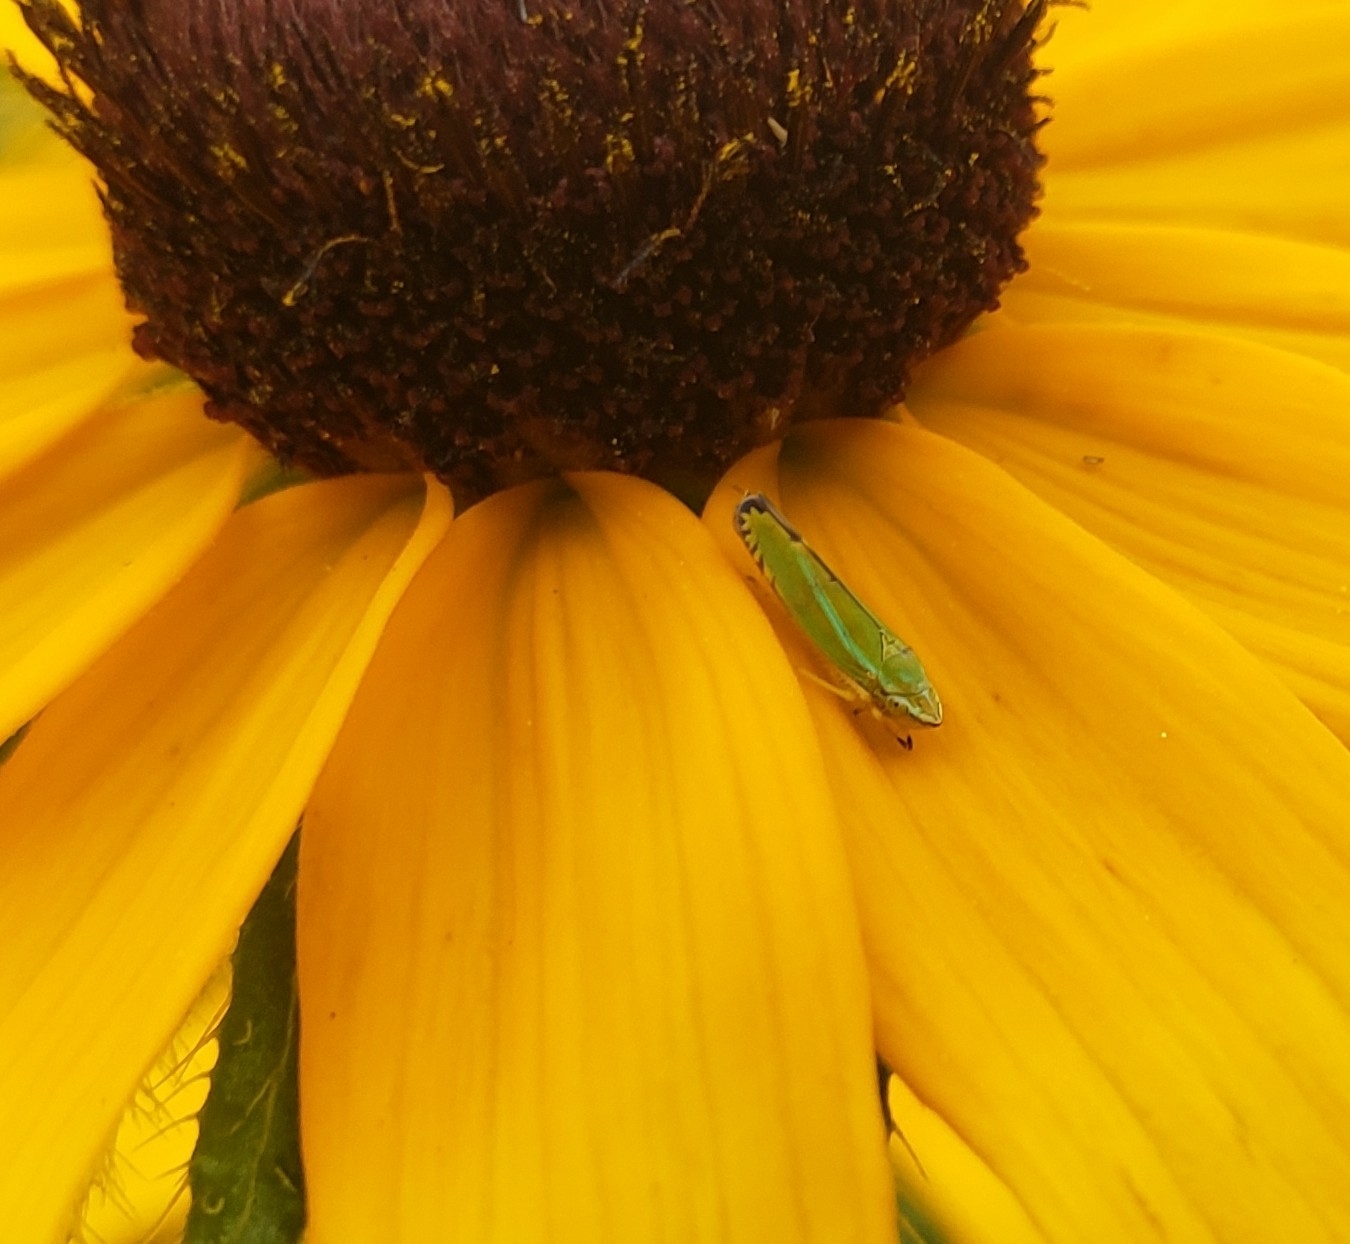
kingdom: Animalia
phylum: Arthropoda
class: Insecta
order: Hemiptera
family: Cicadellidae
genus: Graphocephala
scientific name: Graphocephala versuta
